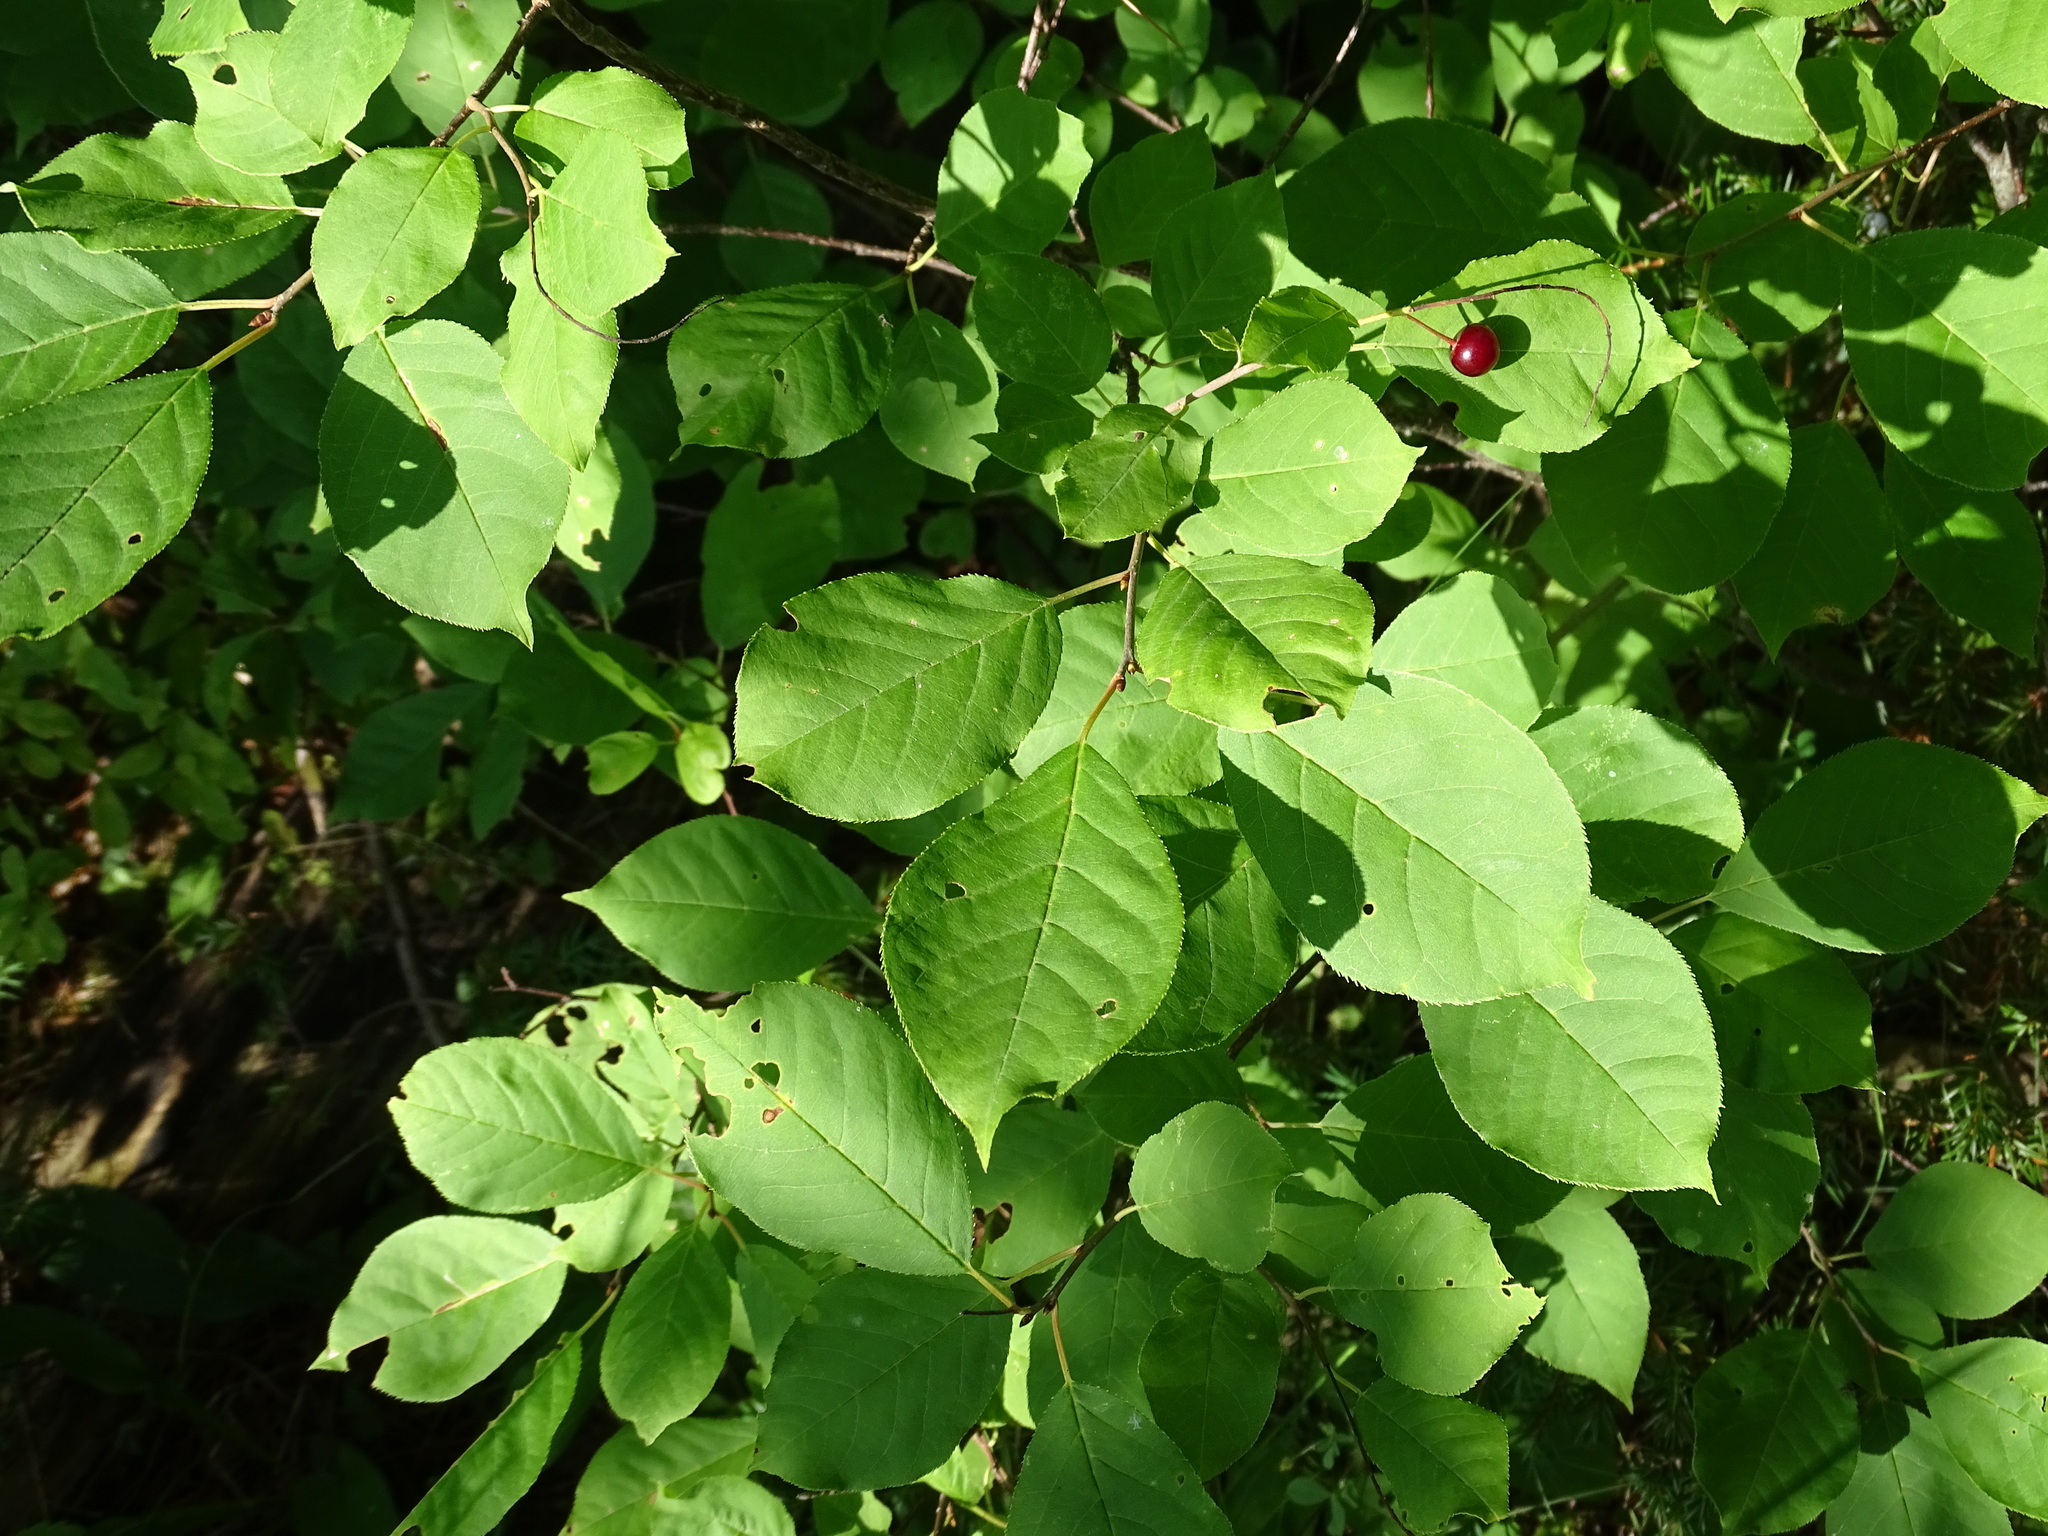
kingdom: Plantae
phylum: Tracheophyta
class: Magnoliopsida
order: Rosales
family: Rosaceae
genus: Prunus
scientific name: Prunus virginiana
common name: Chokecherry
